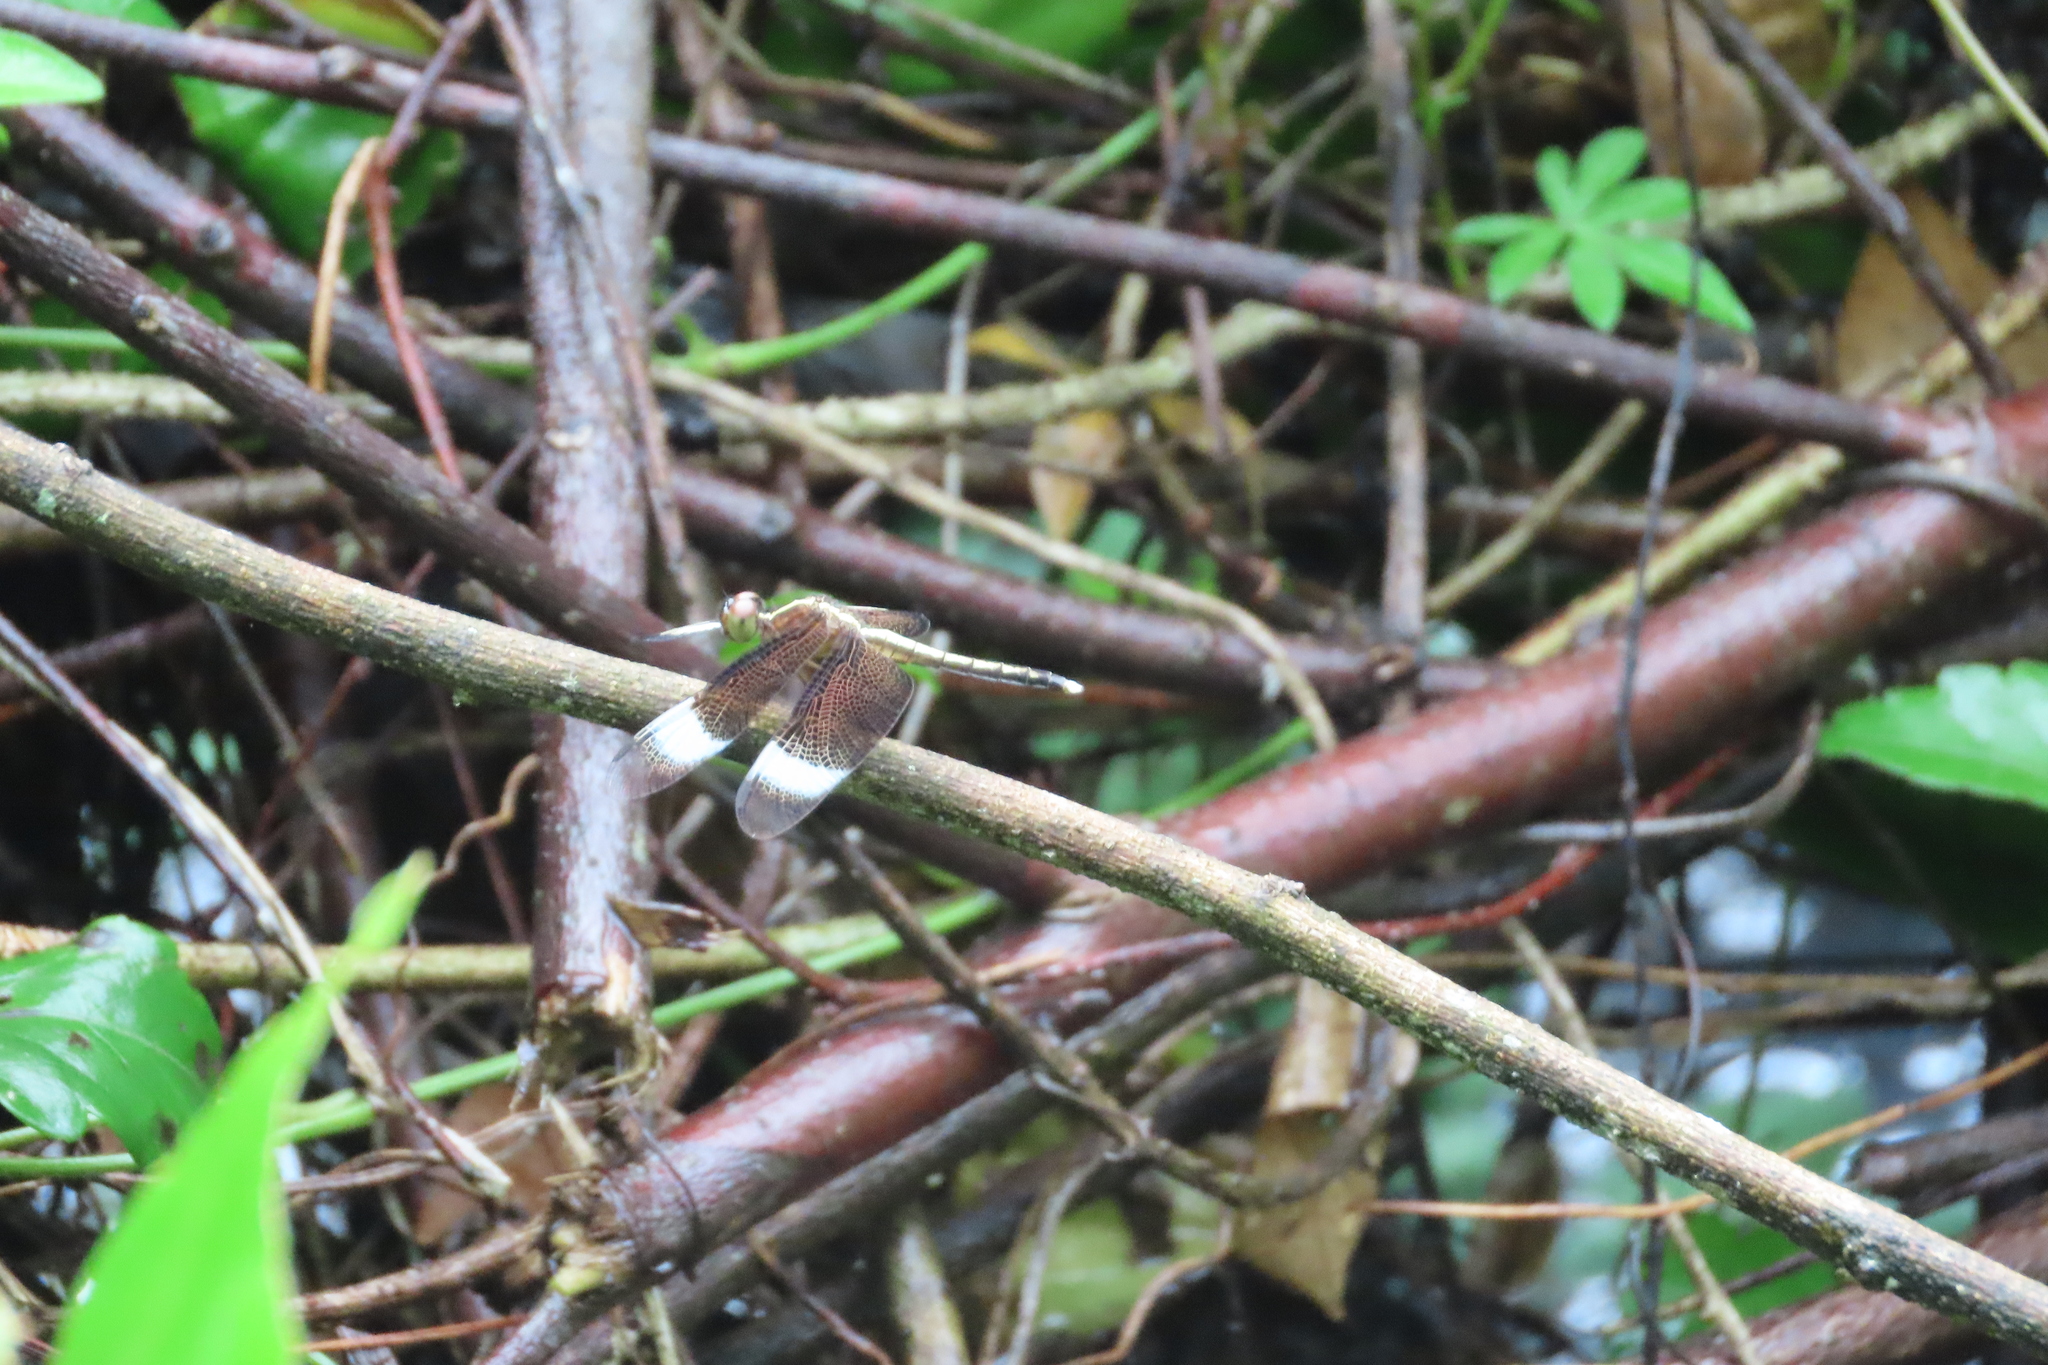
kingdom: Animalia
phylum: Arthropoda
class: Insecta
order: Odonata
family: Libellulidae
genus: Neurothemis
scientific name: Neurothemis tullia
